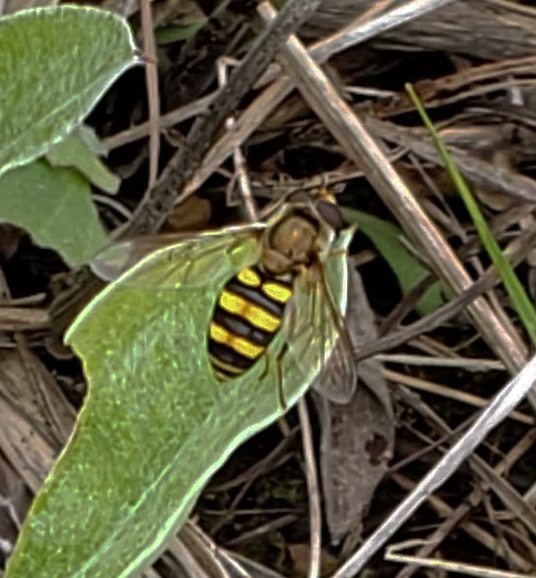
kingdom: Animalia
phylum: Arthropoda
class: Insecta
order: Diptera
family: Syrphidae
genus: Eupeodes
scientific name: Eupeodes
